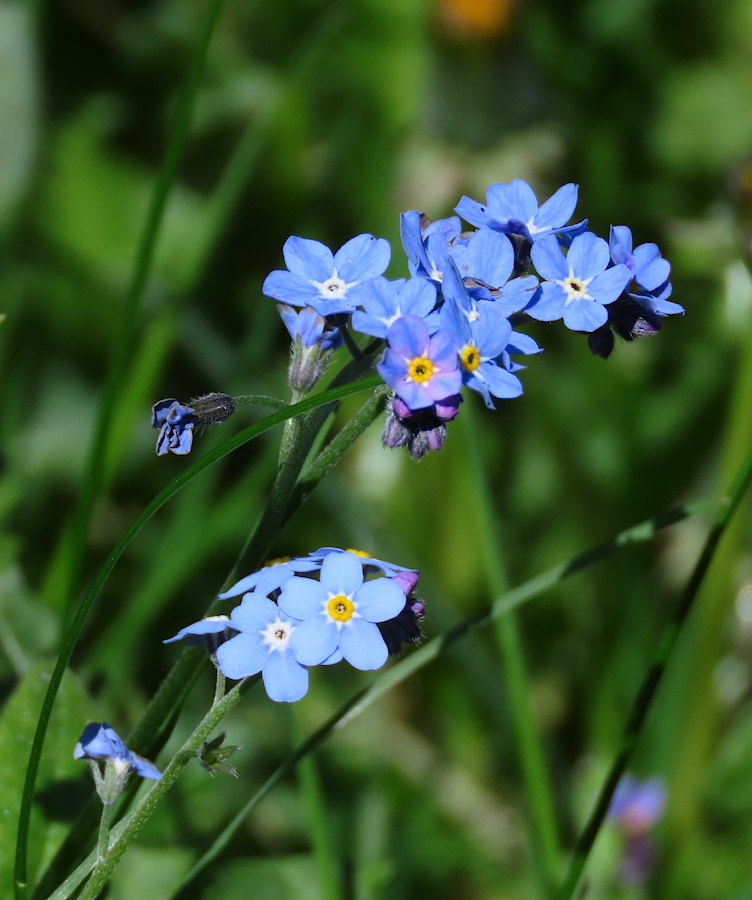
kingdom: Plantae
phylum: Tracheophyta
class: Magnoliopsida
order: Boraginales
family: Boraginaceae
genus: Myosotis
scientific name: Myosotis sylvatica
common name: Wood forget-me-not
